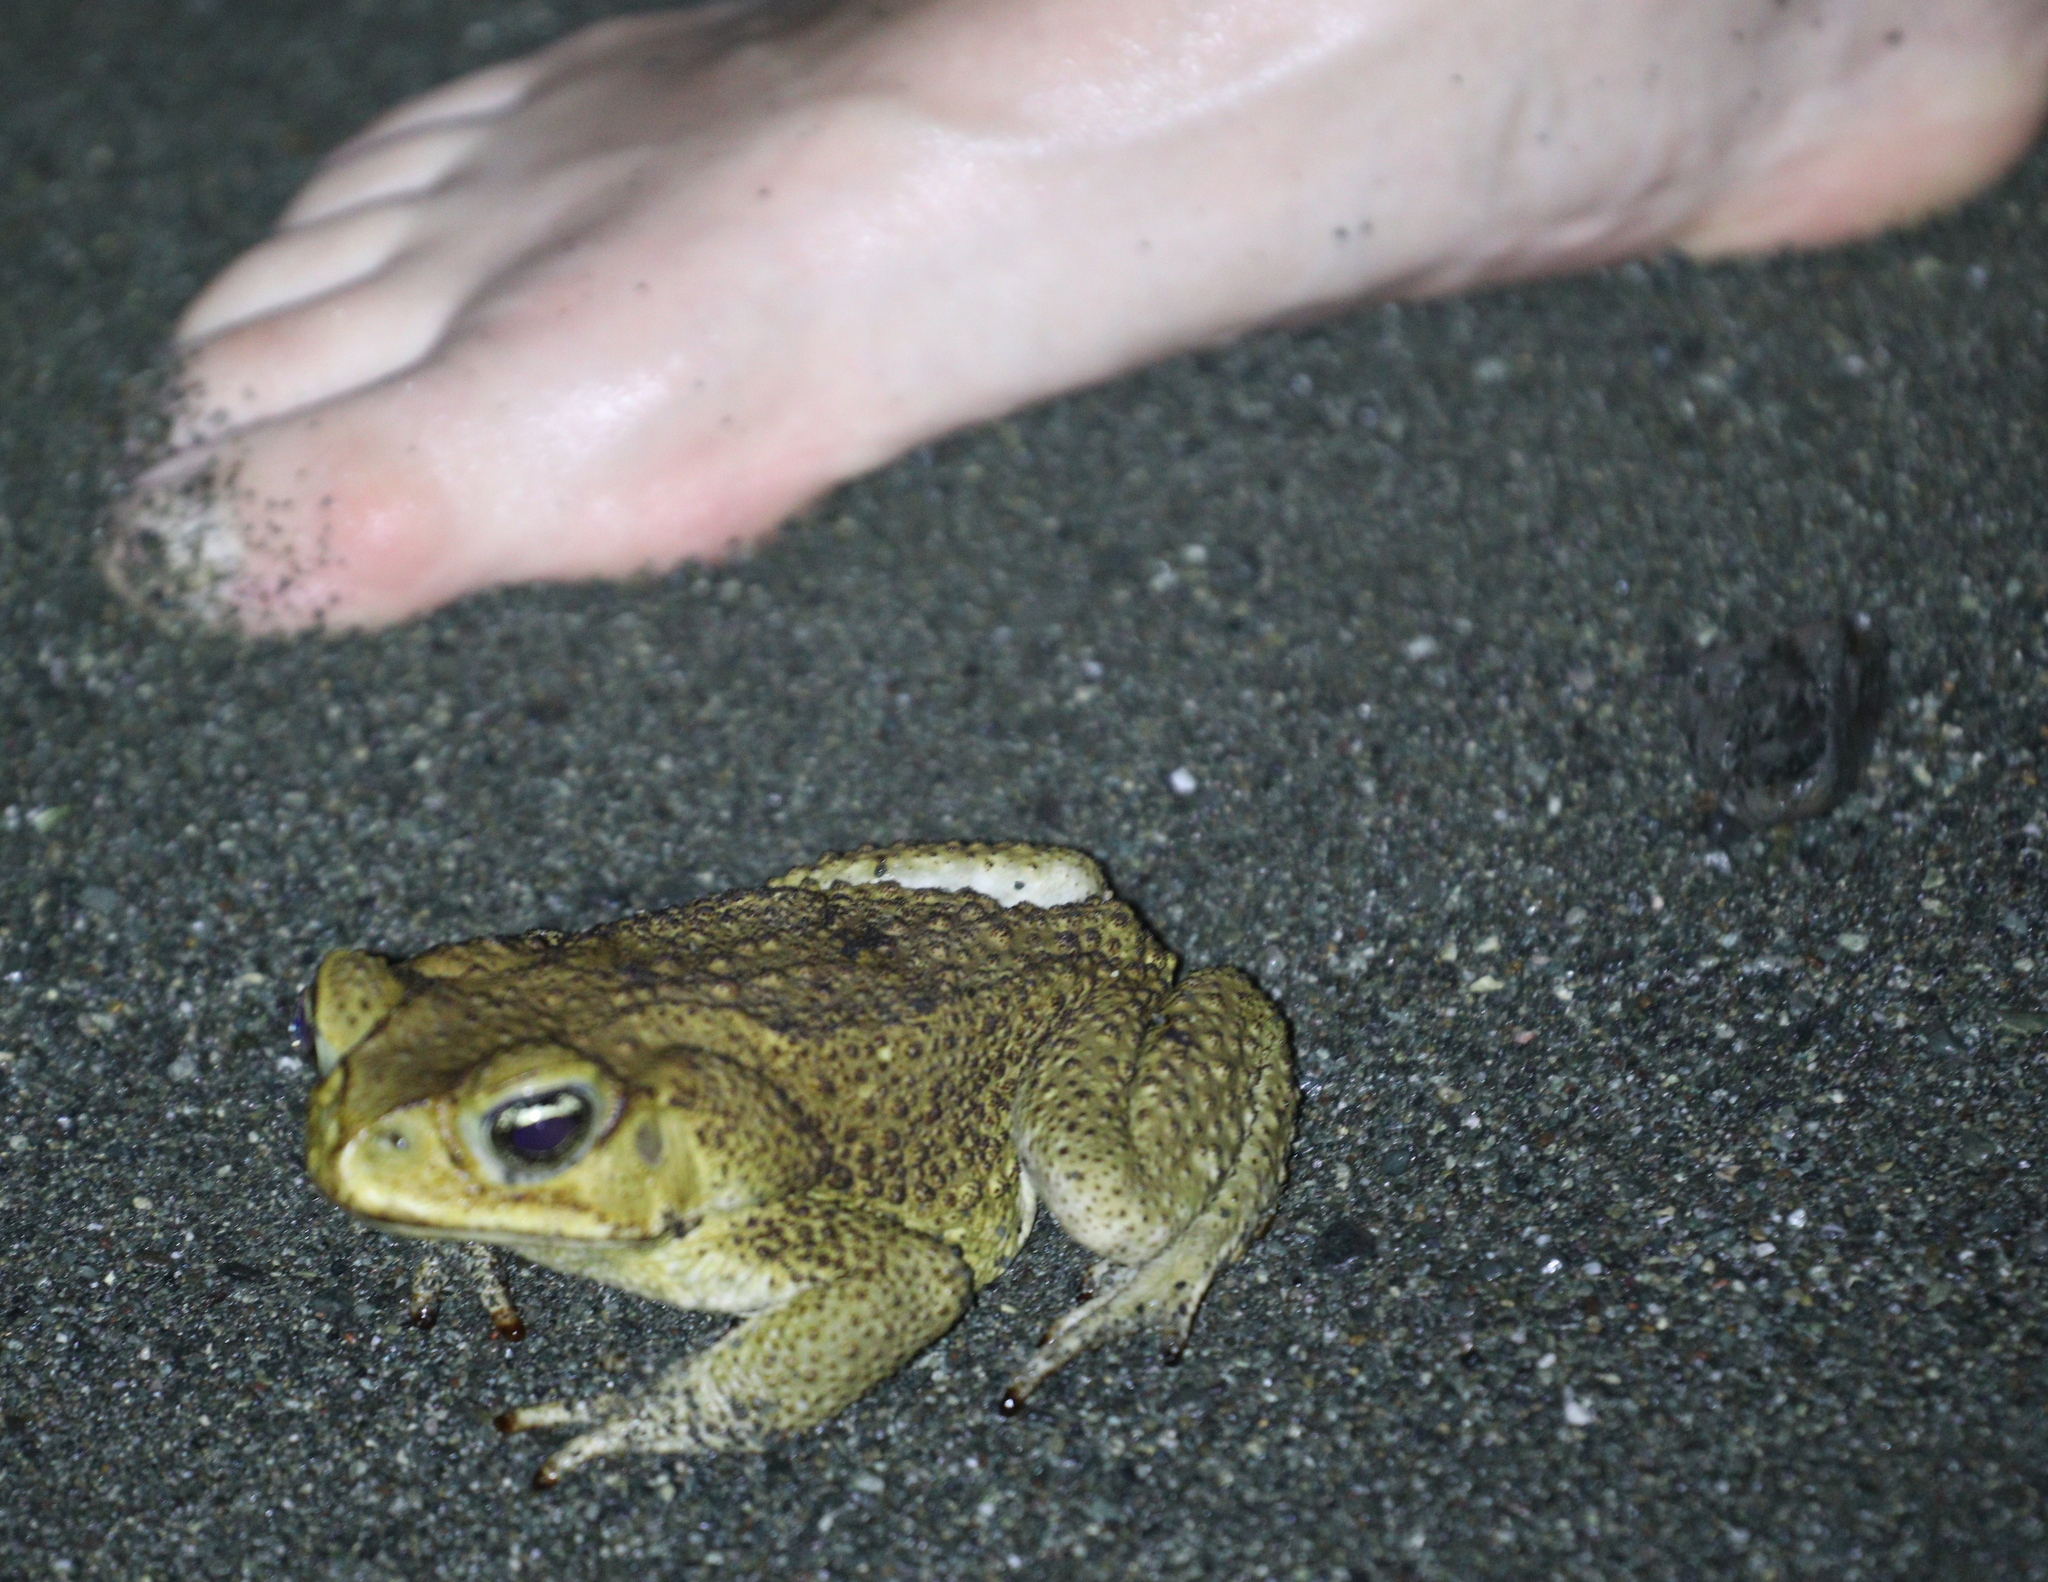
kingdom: Animalia
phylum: Chordata
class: Amphibia
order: Anura
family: Bufonidae
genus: Rhinella
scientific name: Rhinella horribilis
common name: Mesoamerican cane toad
